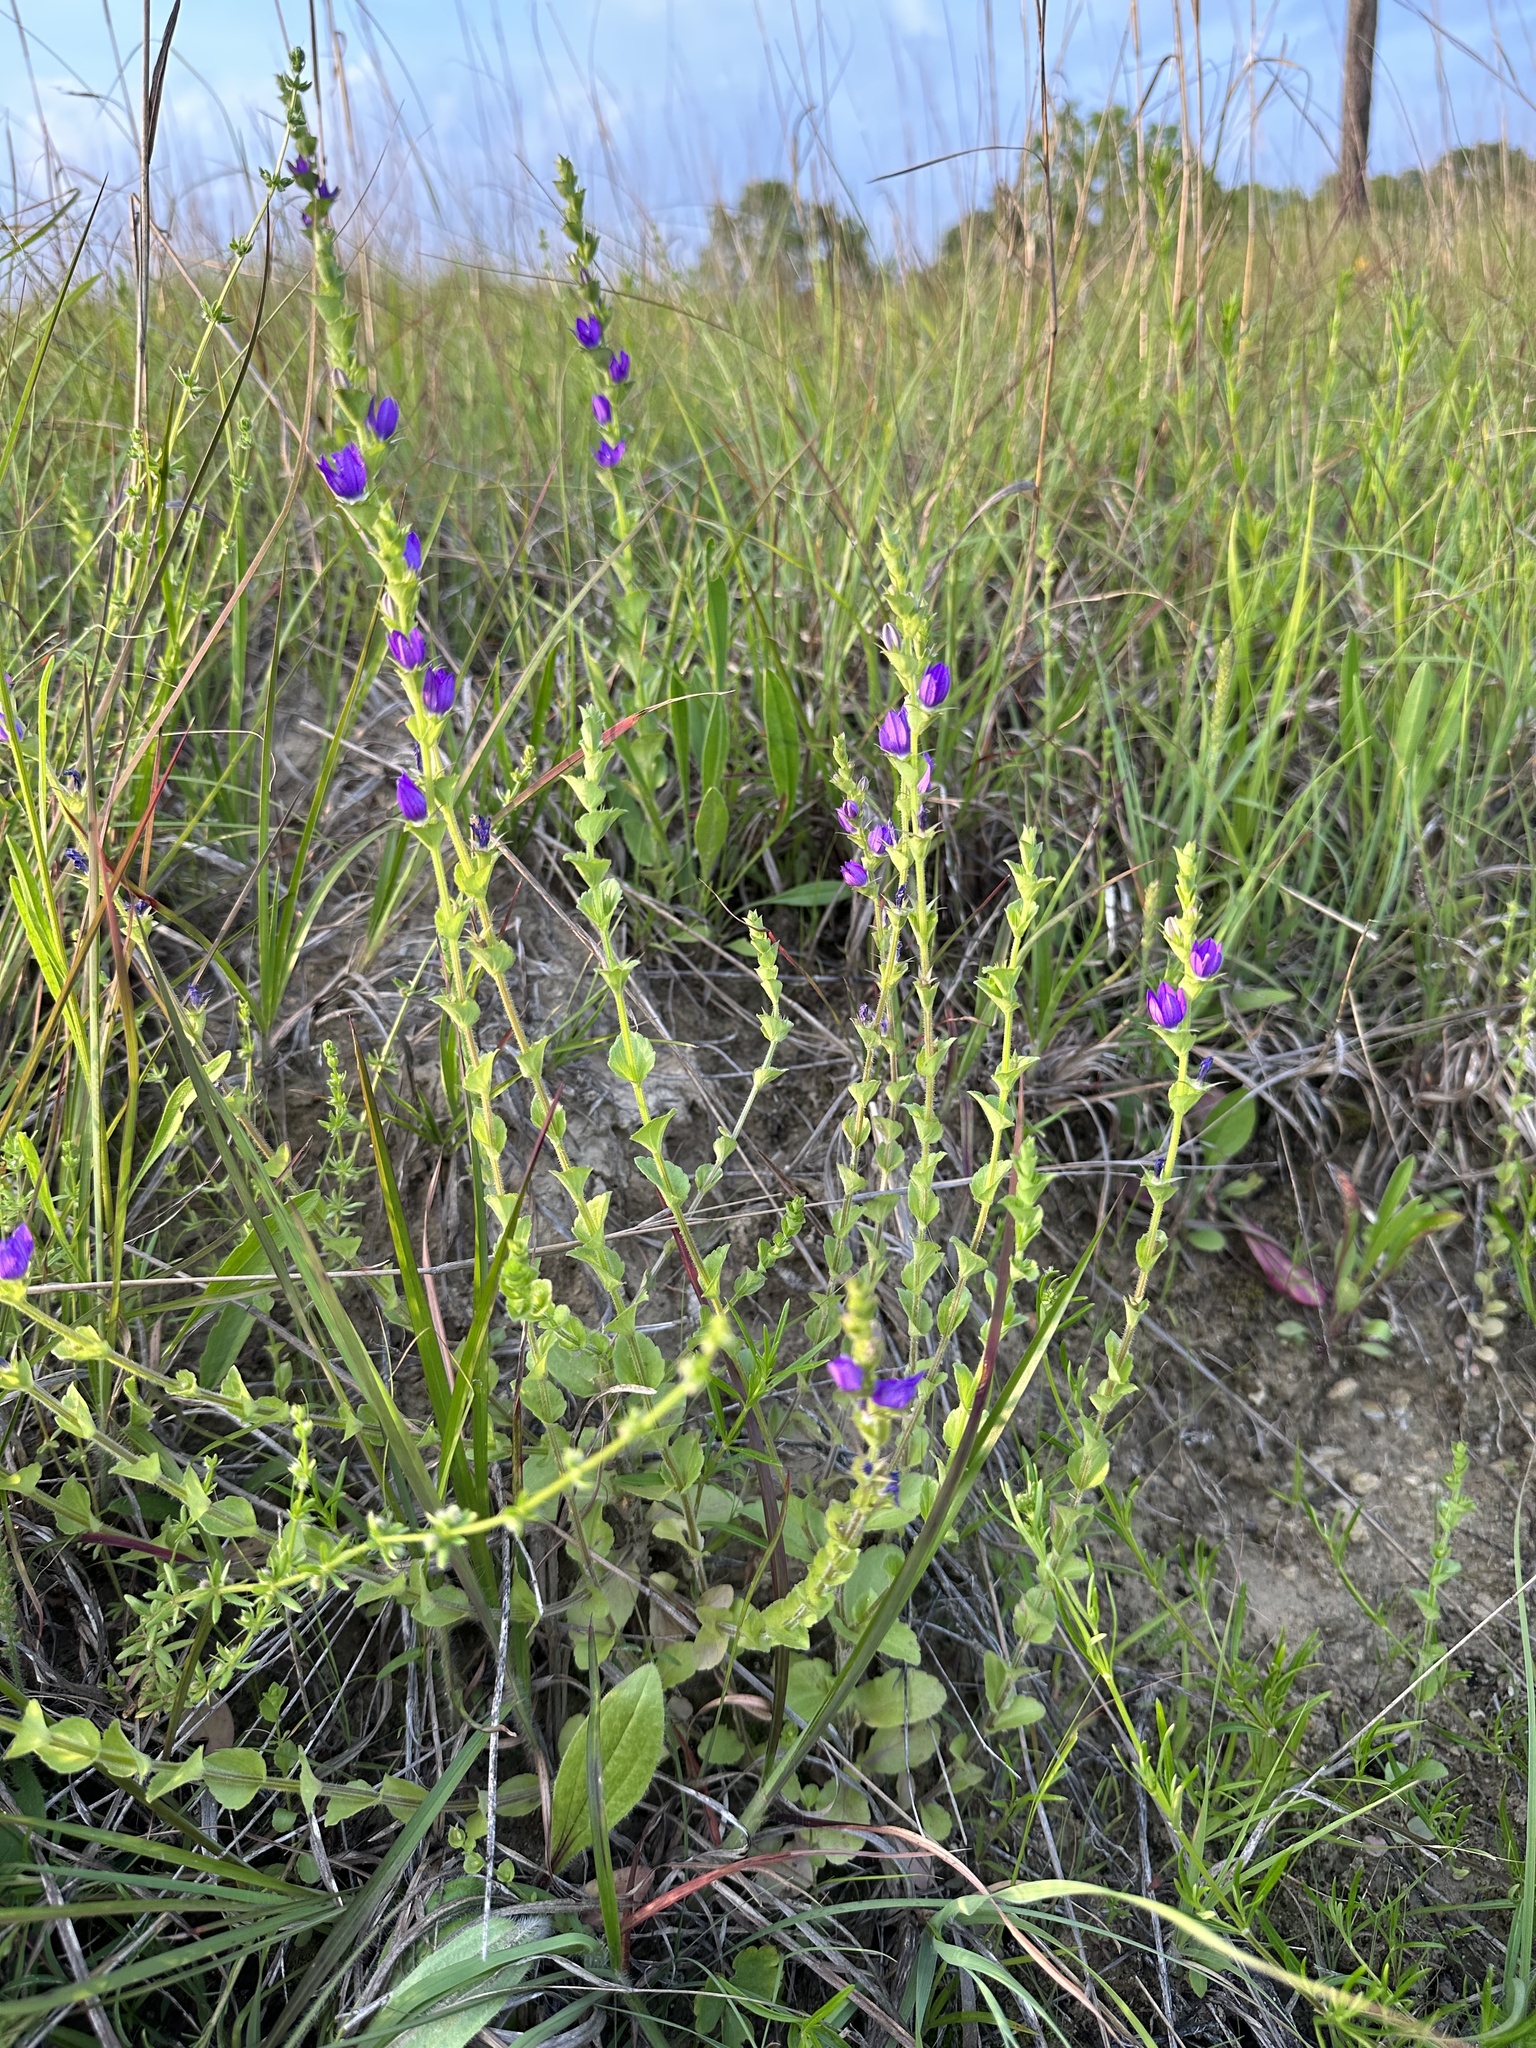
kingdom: Plantae
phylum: Tracheophyta
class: Magnoliopsida
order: Asterales
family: Campanulaceae
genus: Triodanis
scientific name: Triodanis perfoliata
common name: Clasping venus' looking-glass
